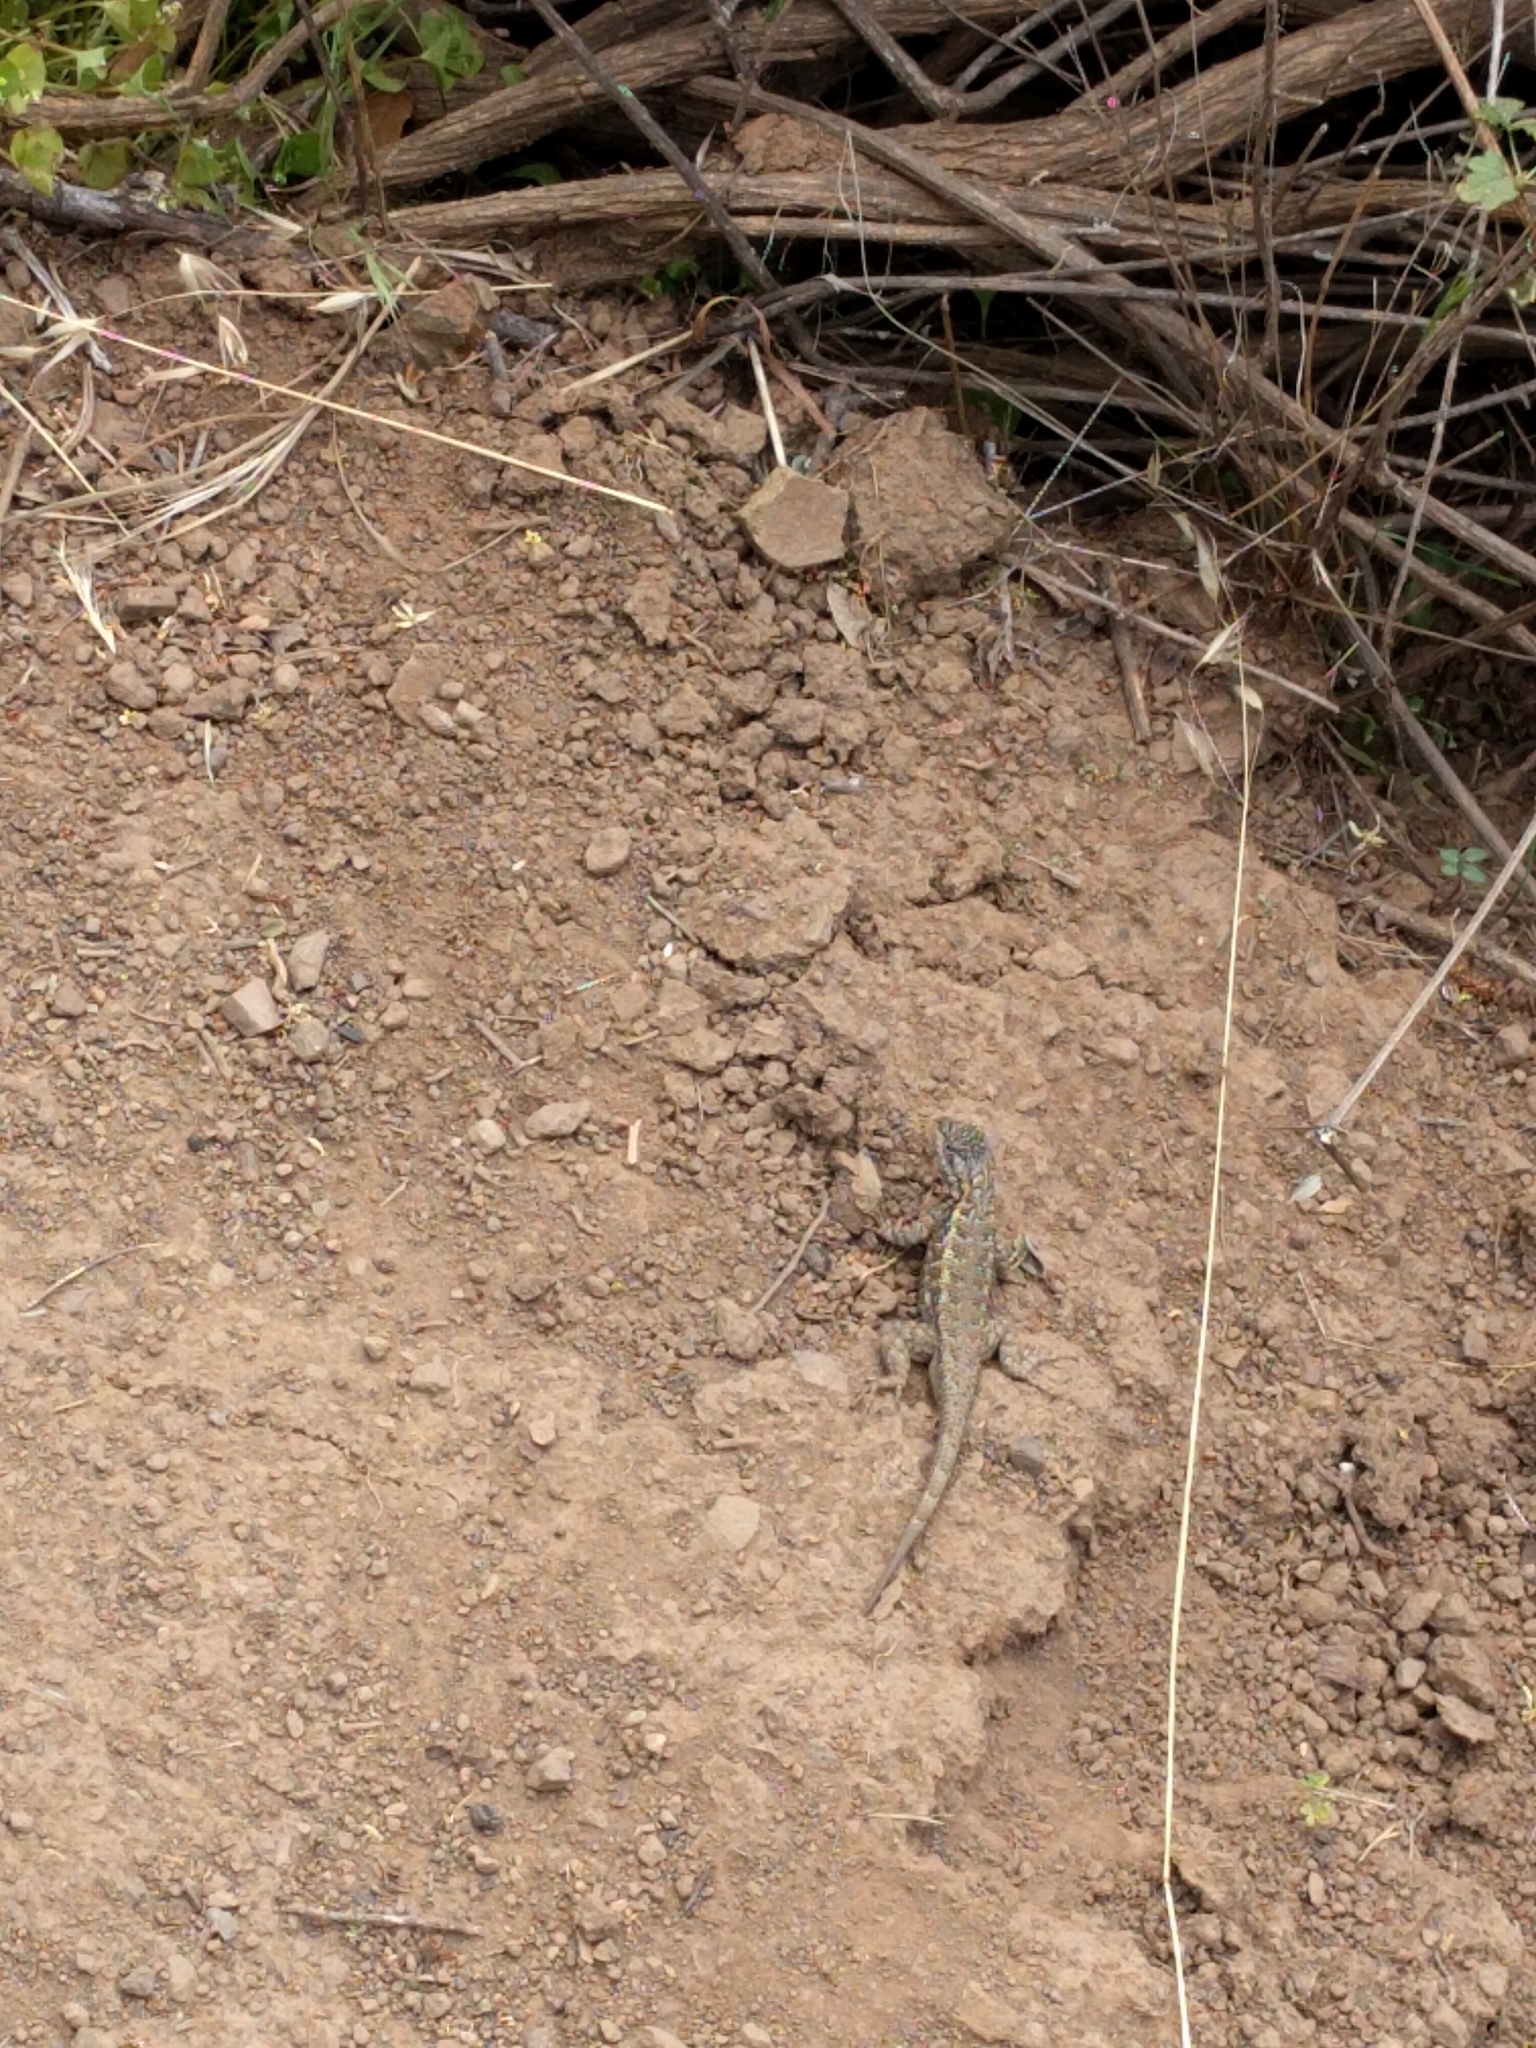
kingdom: Animalia
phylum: Chordata
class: Squamata
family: Phrynosomatidae
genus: Sceloporus
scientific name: Sceloporus occidentalis
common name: Western fence lizard
